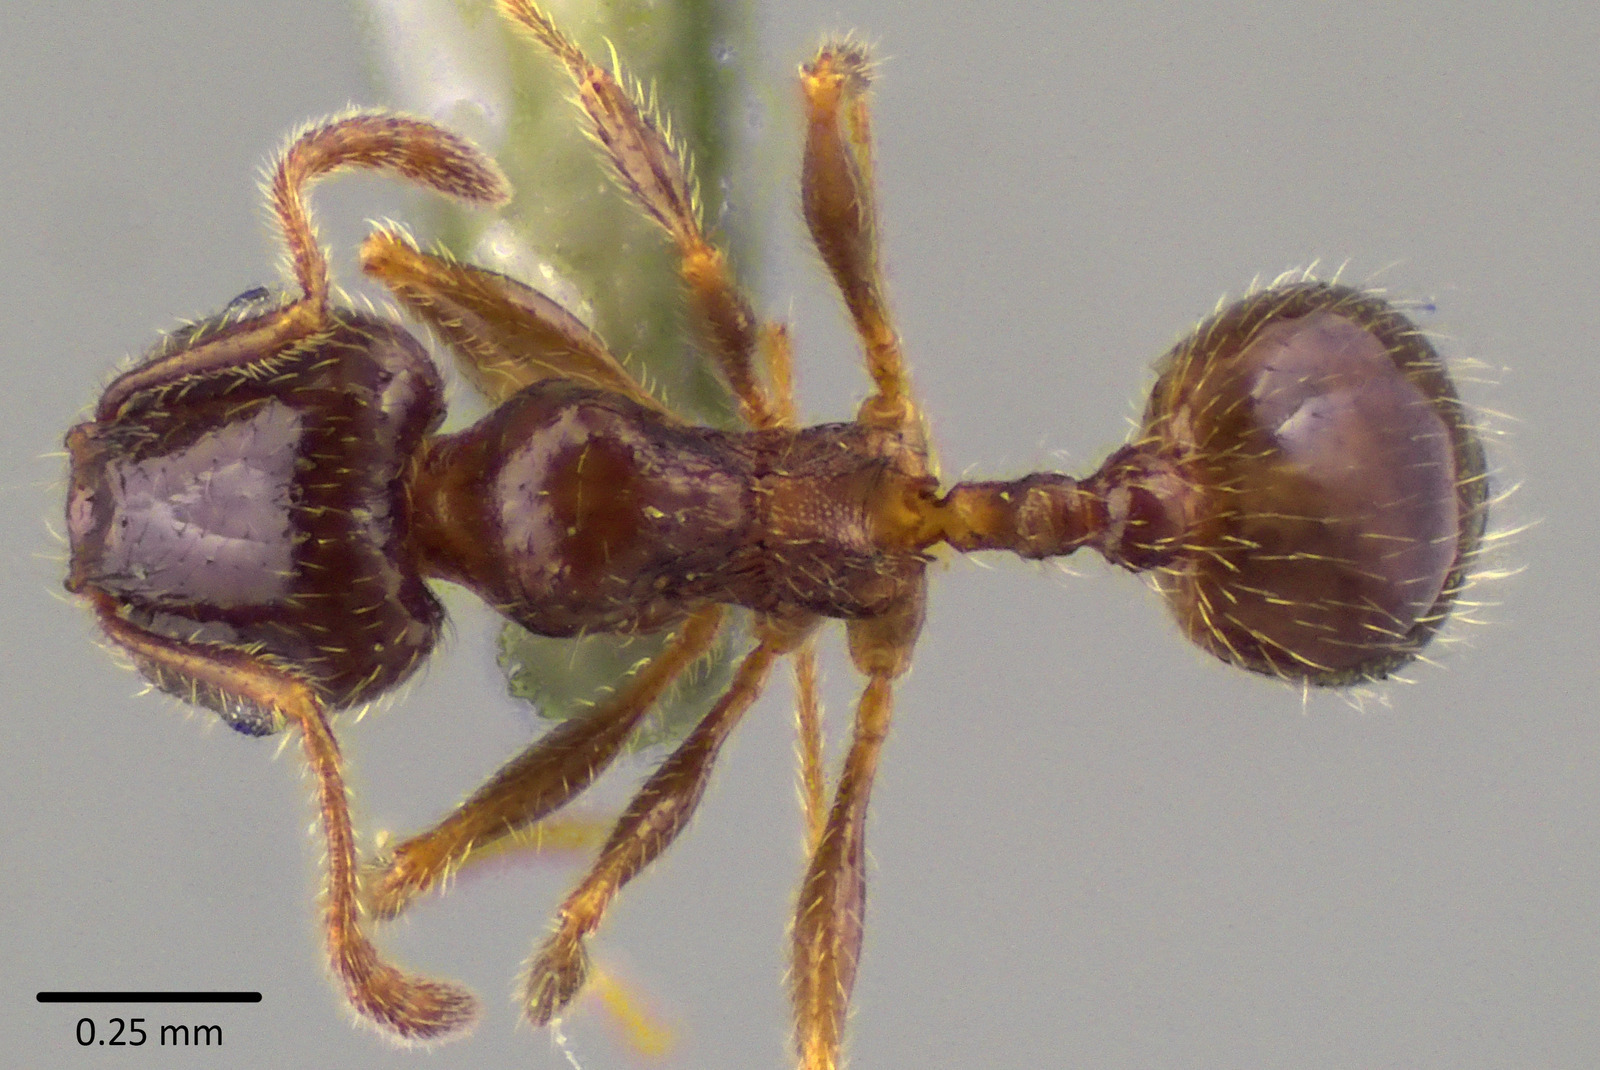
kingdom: Animalia
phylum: Arthropoda
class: Insecta
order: Hymenoptera
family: Formicidae
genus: Pheidole
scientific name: Pheidole bicarinata
